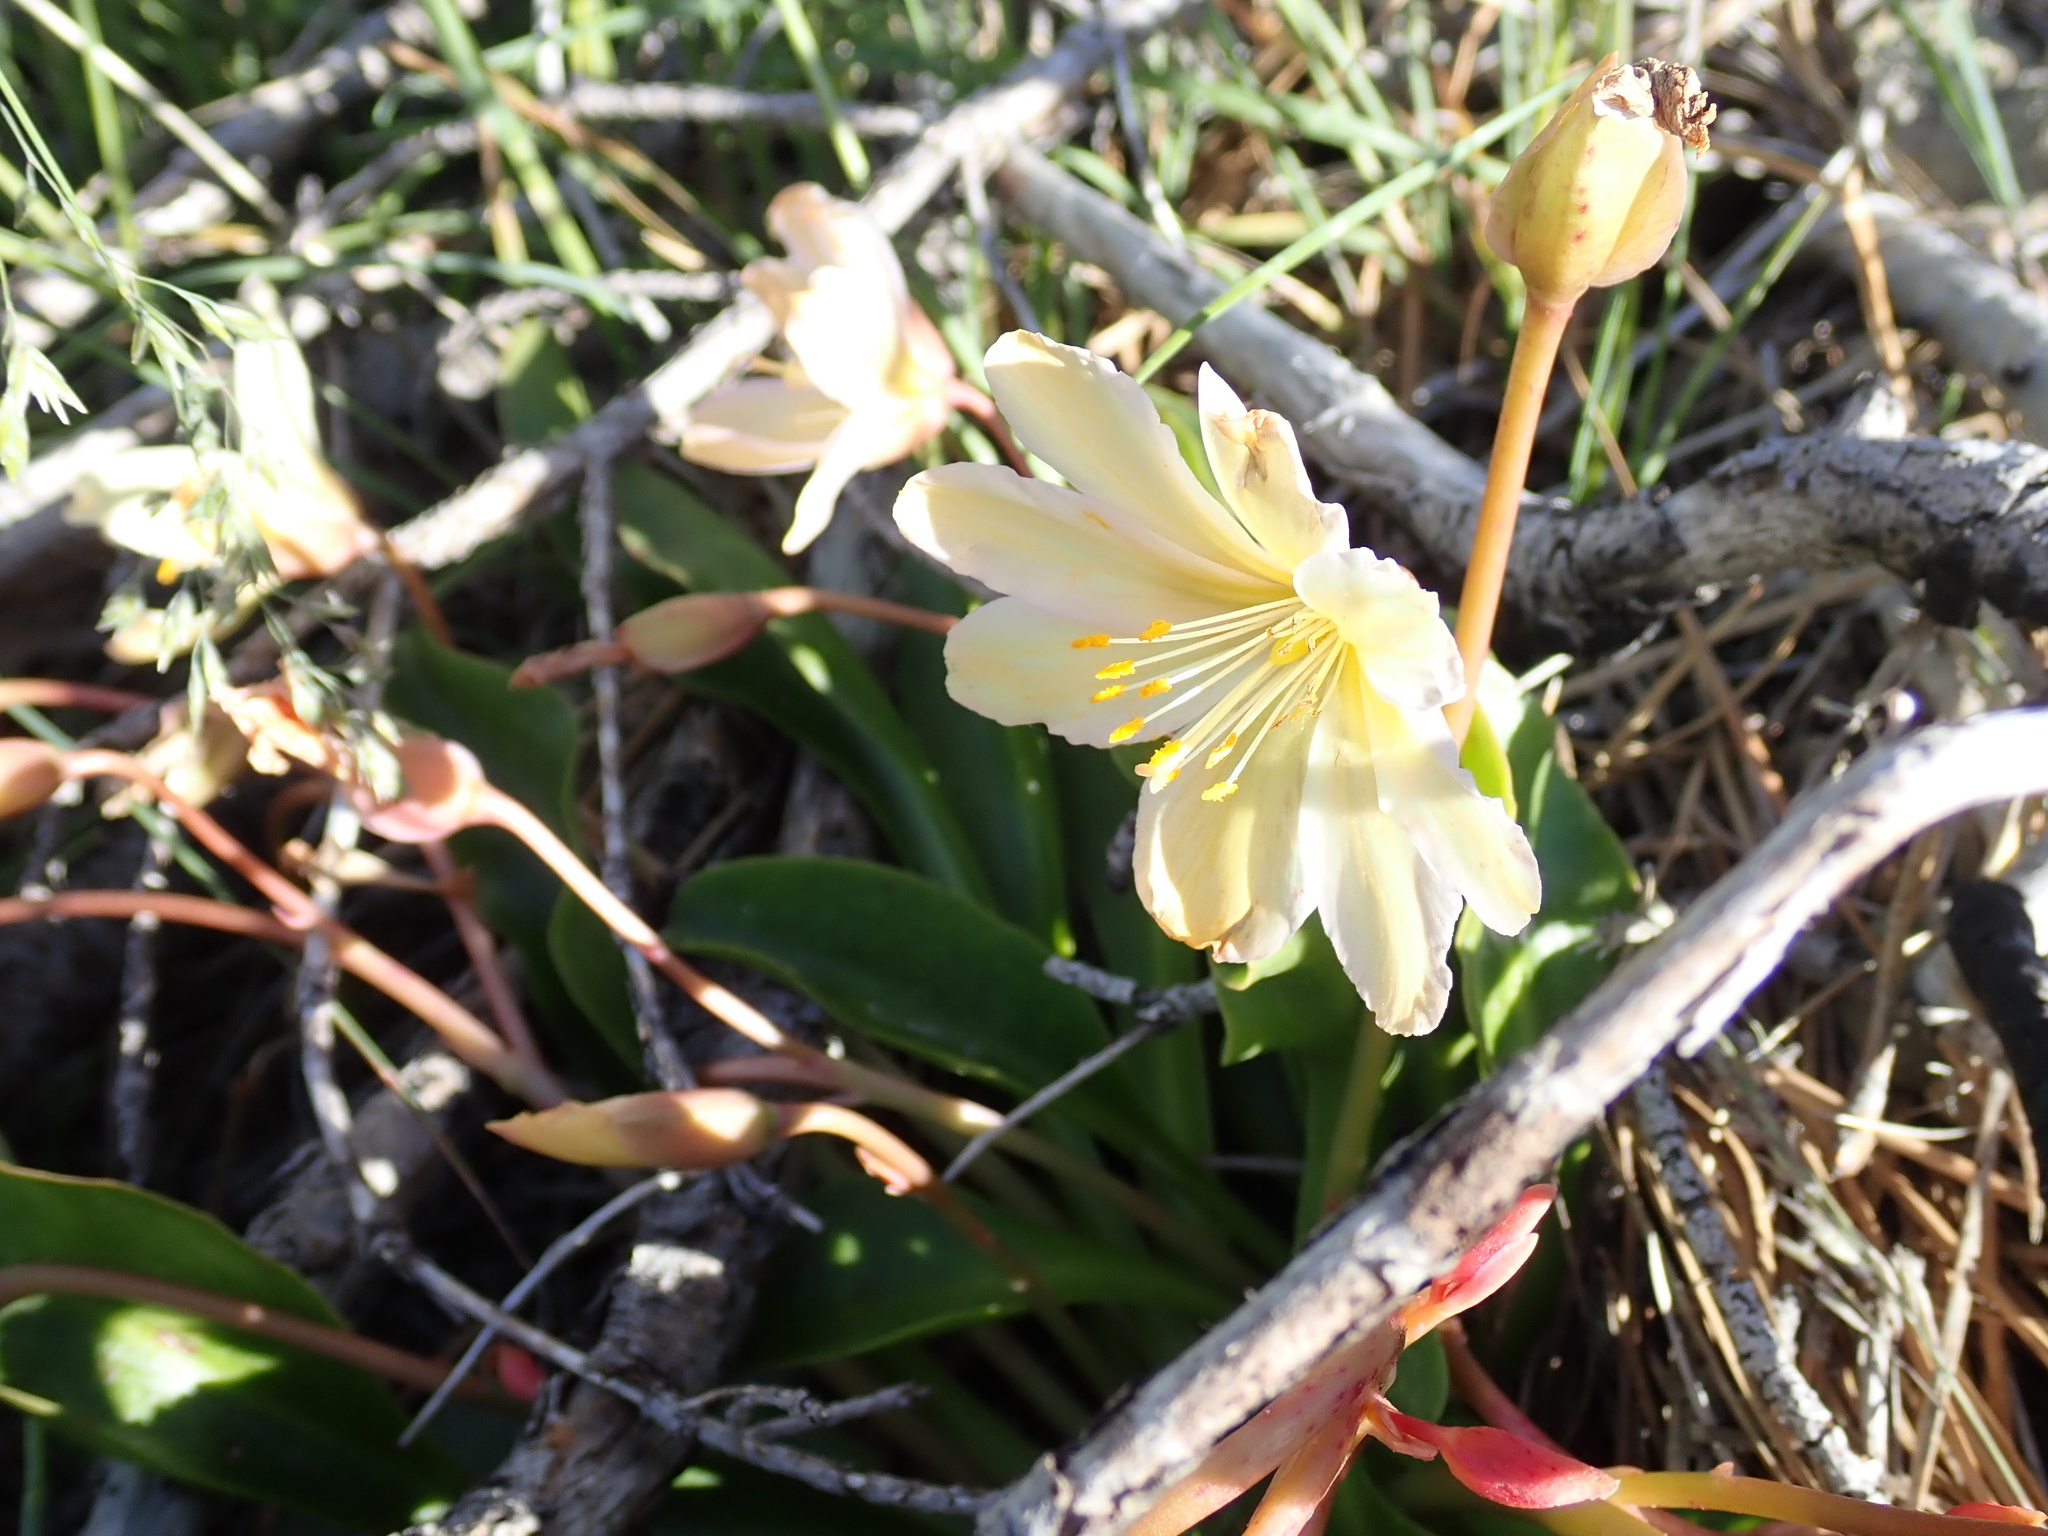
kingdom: Plantae
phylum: Tracheophyta
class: Magnoliopsida
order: Caryophyllales
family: Montiaceae
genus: Lewisiopsis
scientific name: Lewisiopsis tweedyi
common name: Tweedy's pussypaws
